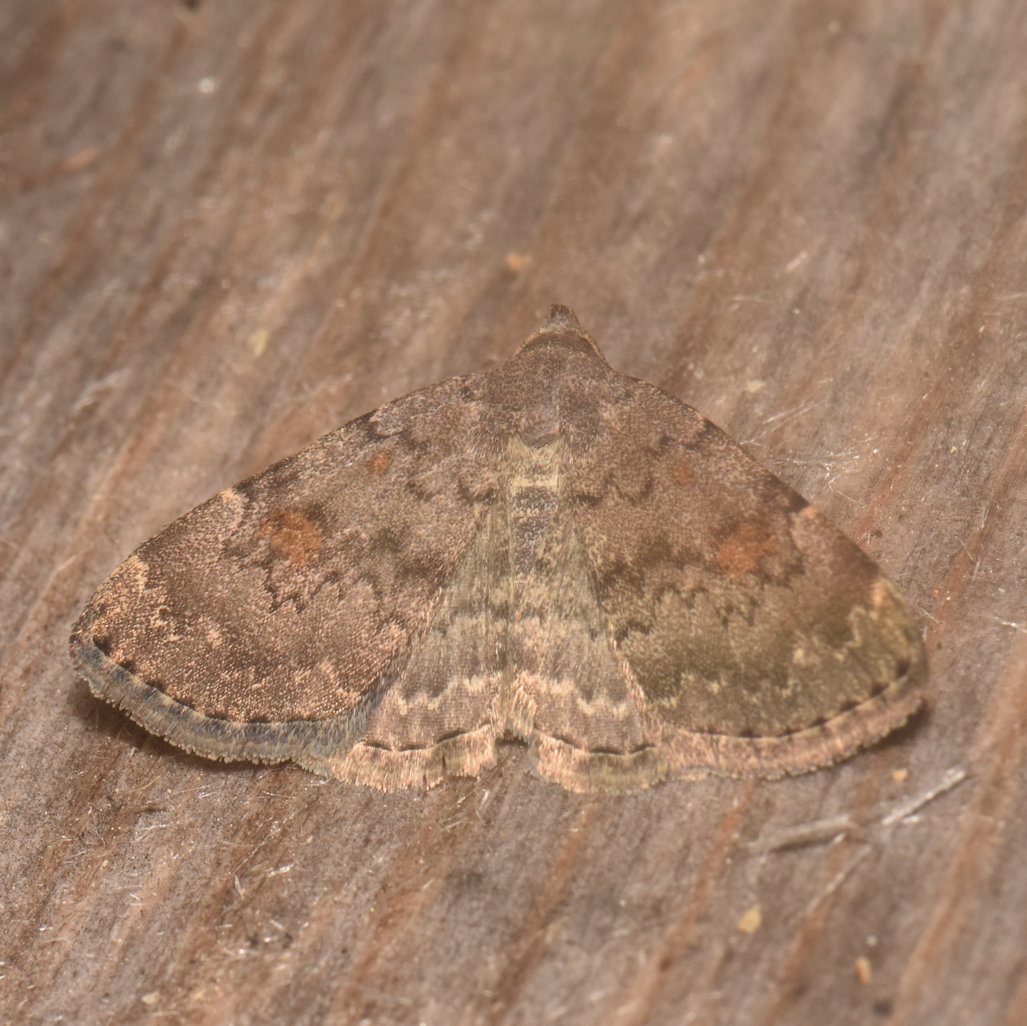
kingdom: Animalia
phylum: Arthropoda
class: Insecta
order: Lepidoptera
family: Erebidae
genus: Idia
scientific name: Idia aemula
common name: Common idia moth
